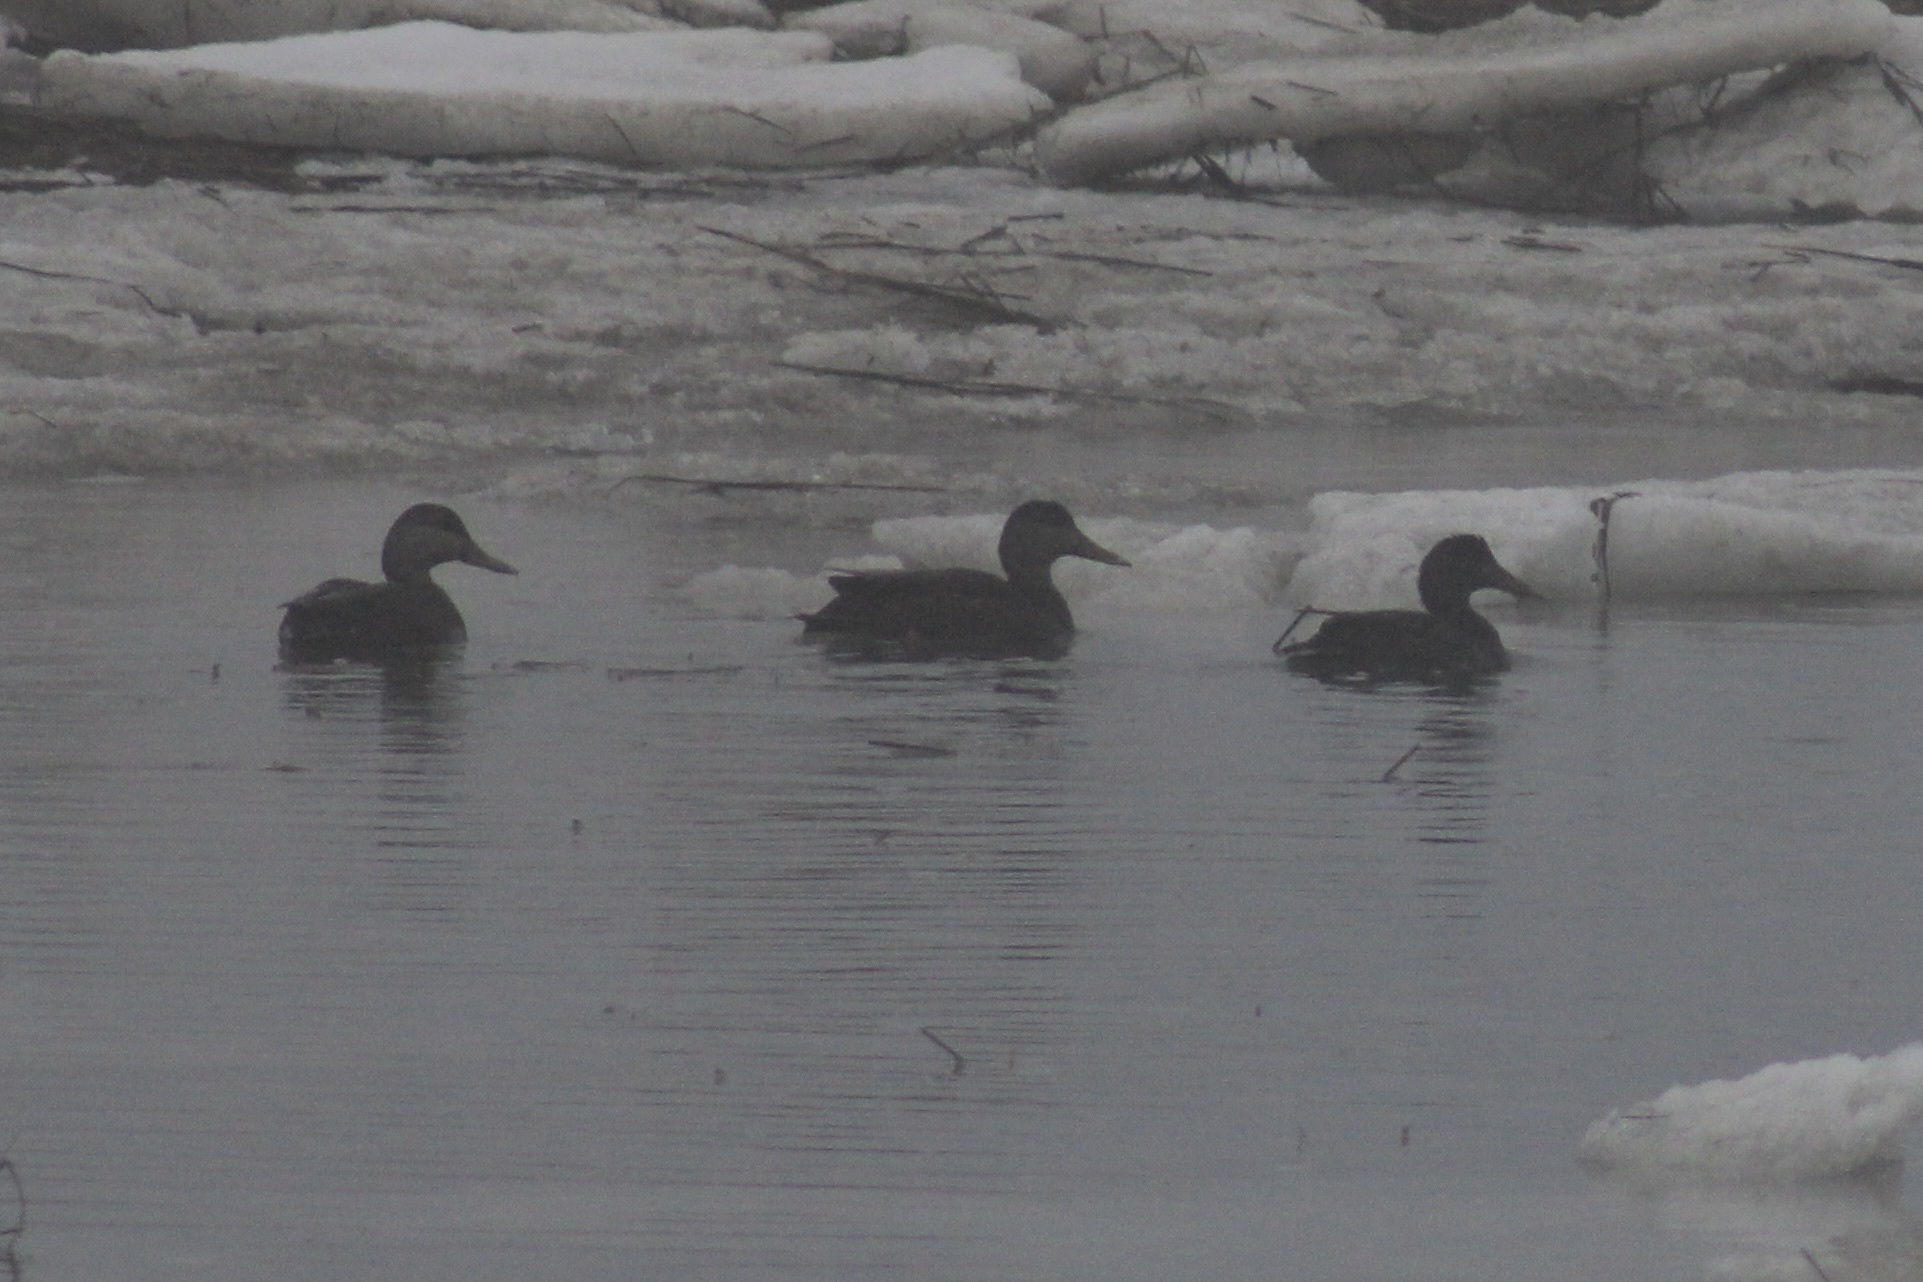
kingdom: Animalia
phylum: Chordata
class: Aves
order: Anseriformes
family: Anatidae
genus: Anas
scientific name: Anas rubripes
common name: American black duck
